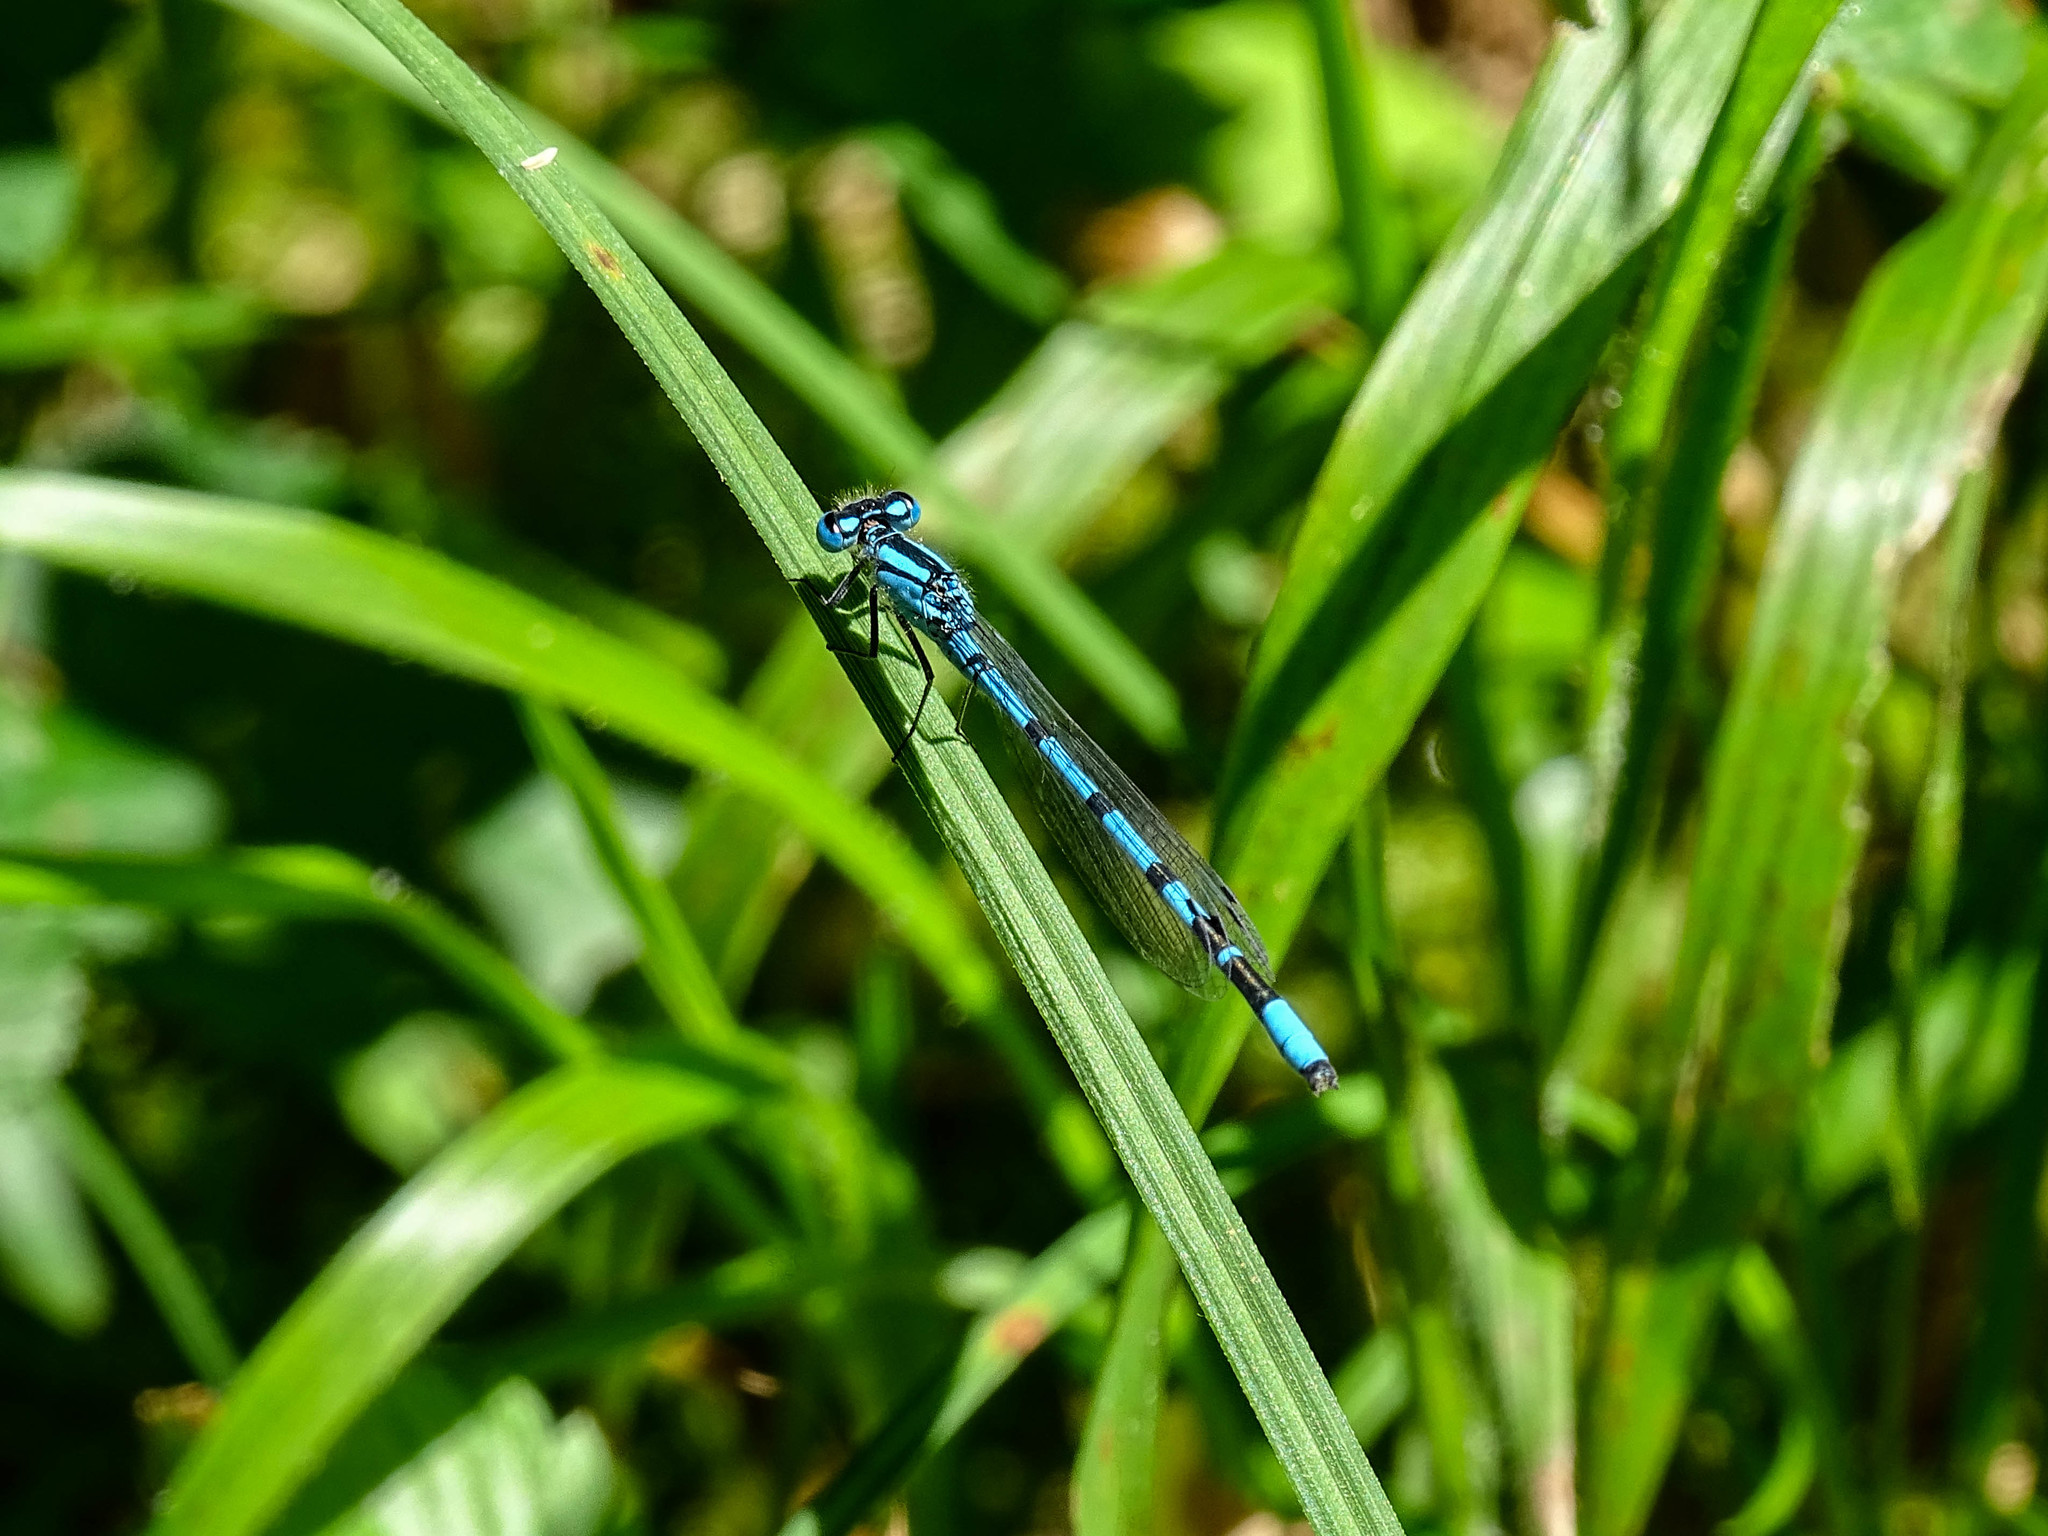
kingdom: Animalia
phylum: Arthropoda
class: Insecta
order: Odonata
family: Coenagrionidae
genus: Enallagma
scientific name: Enallagma cyathigerum
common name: Common blue damselfly
